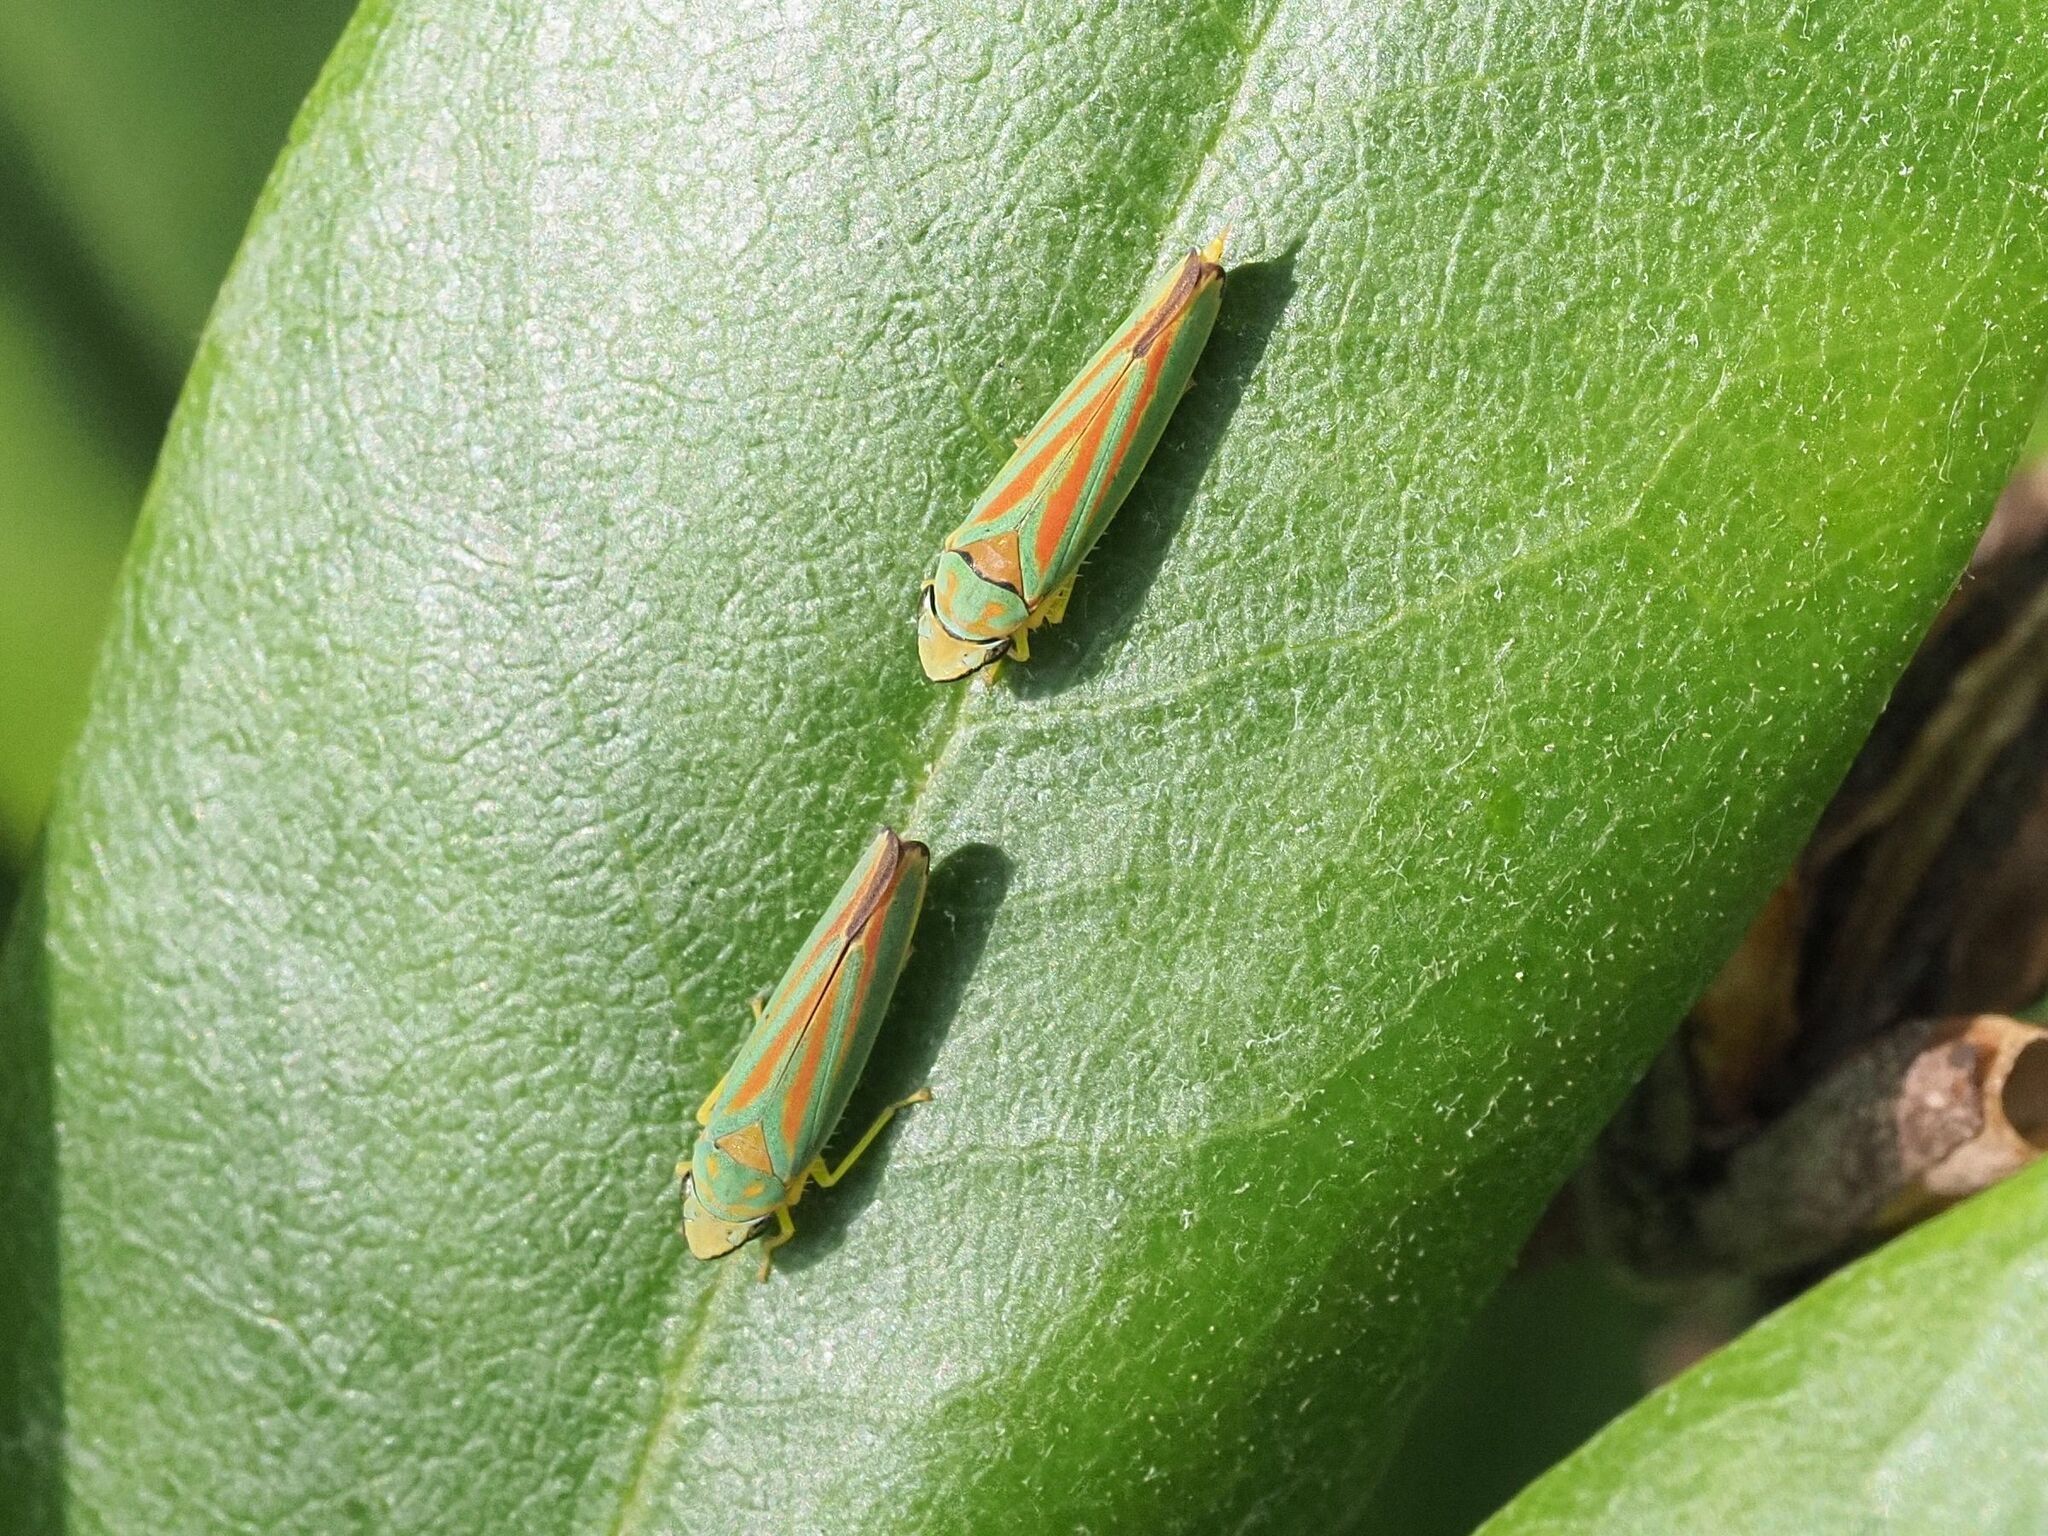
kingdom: Animalia
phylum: Arthropoda
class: Insecta
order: Hemiptera
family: Cicadellidae
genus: Graphocephala
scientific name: Graphocephala fennahi
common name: Rhododendron leafhopper
